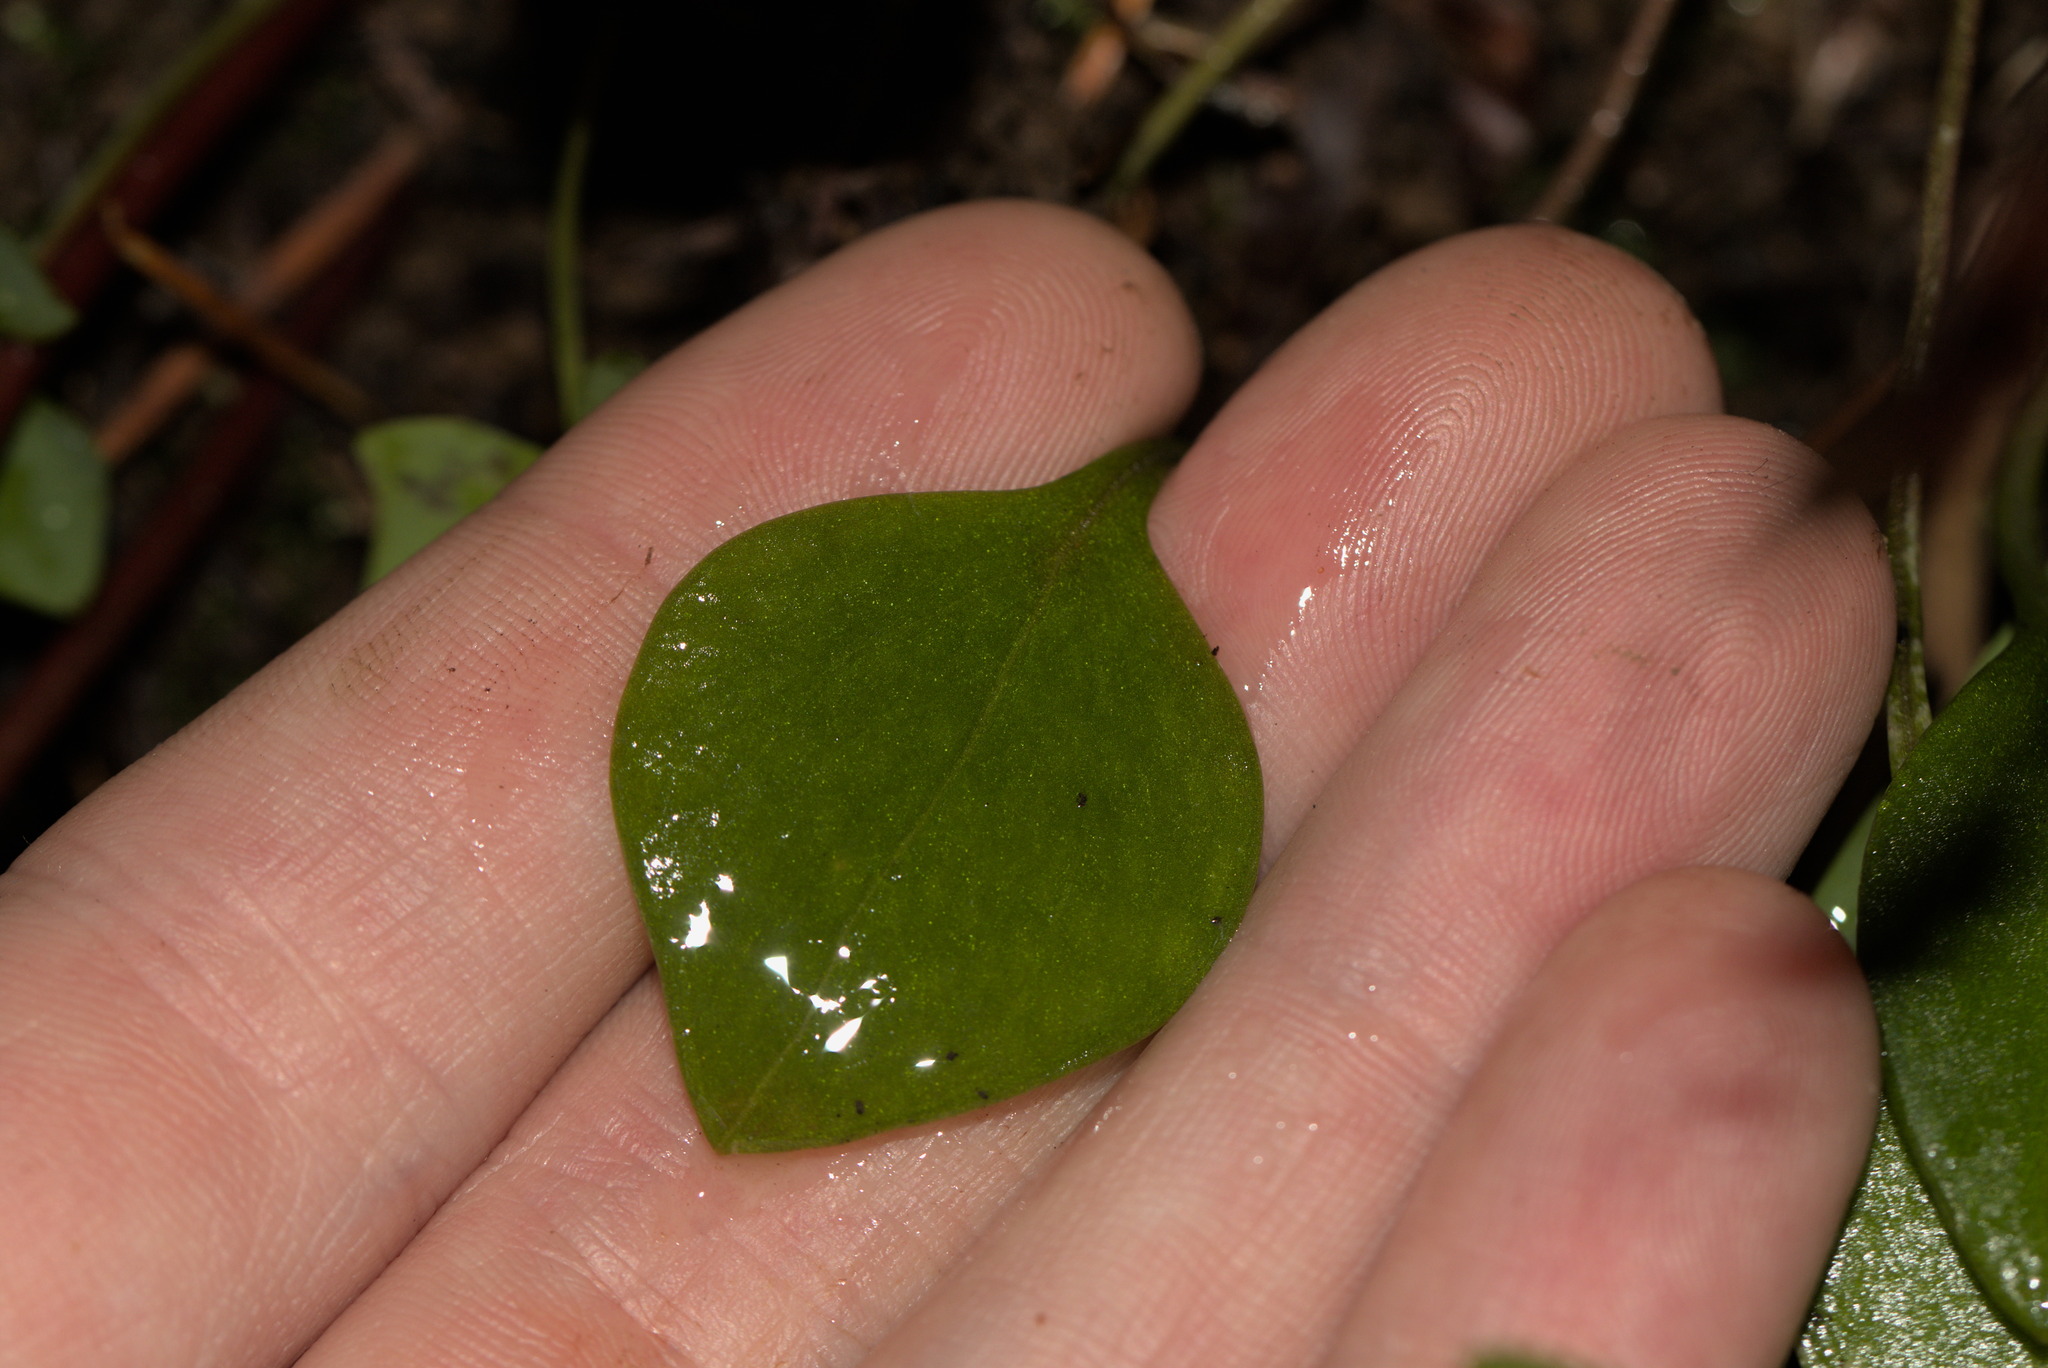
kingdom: Plantae
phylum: Tracheophyta
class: Magnoliopsida
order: Caryophyllales
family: Montiaceae
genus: Claytonia
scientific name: Claytonia sibirica
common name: Pink purslane
